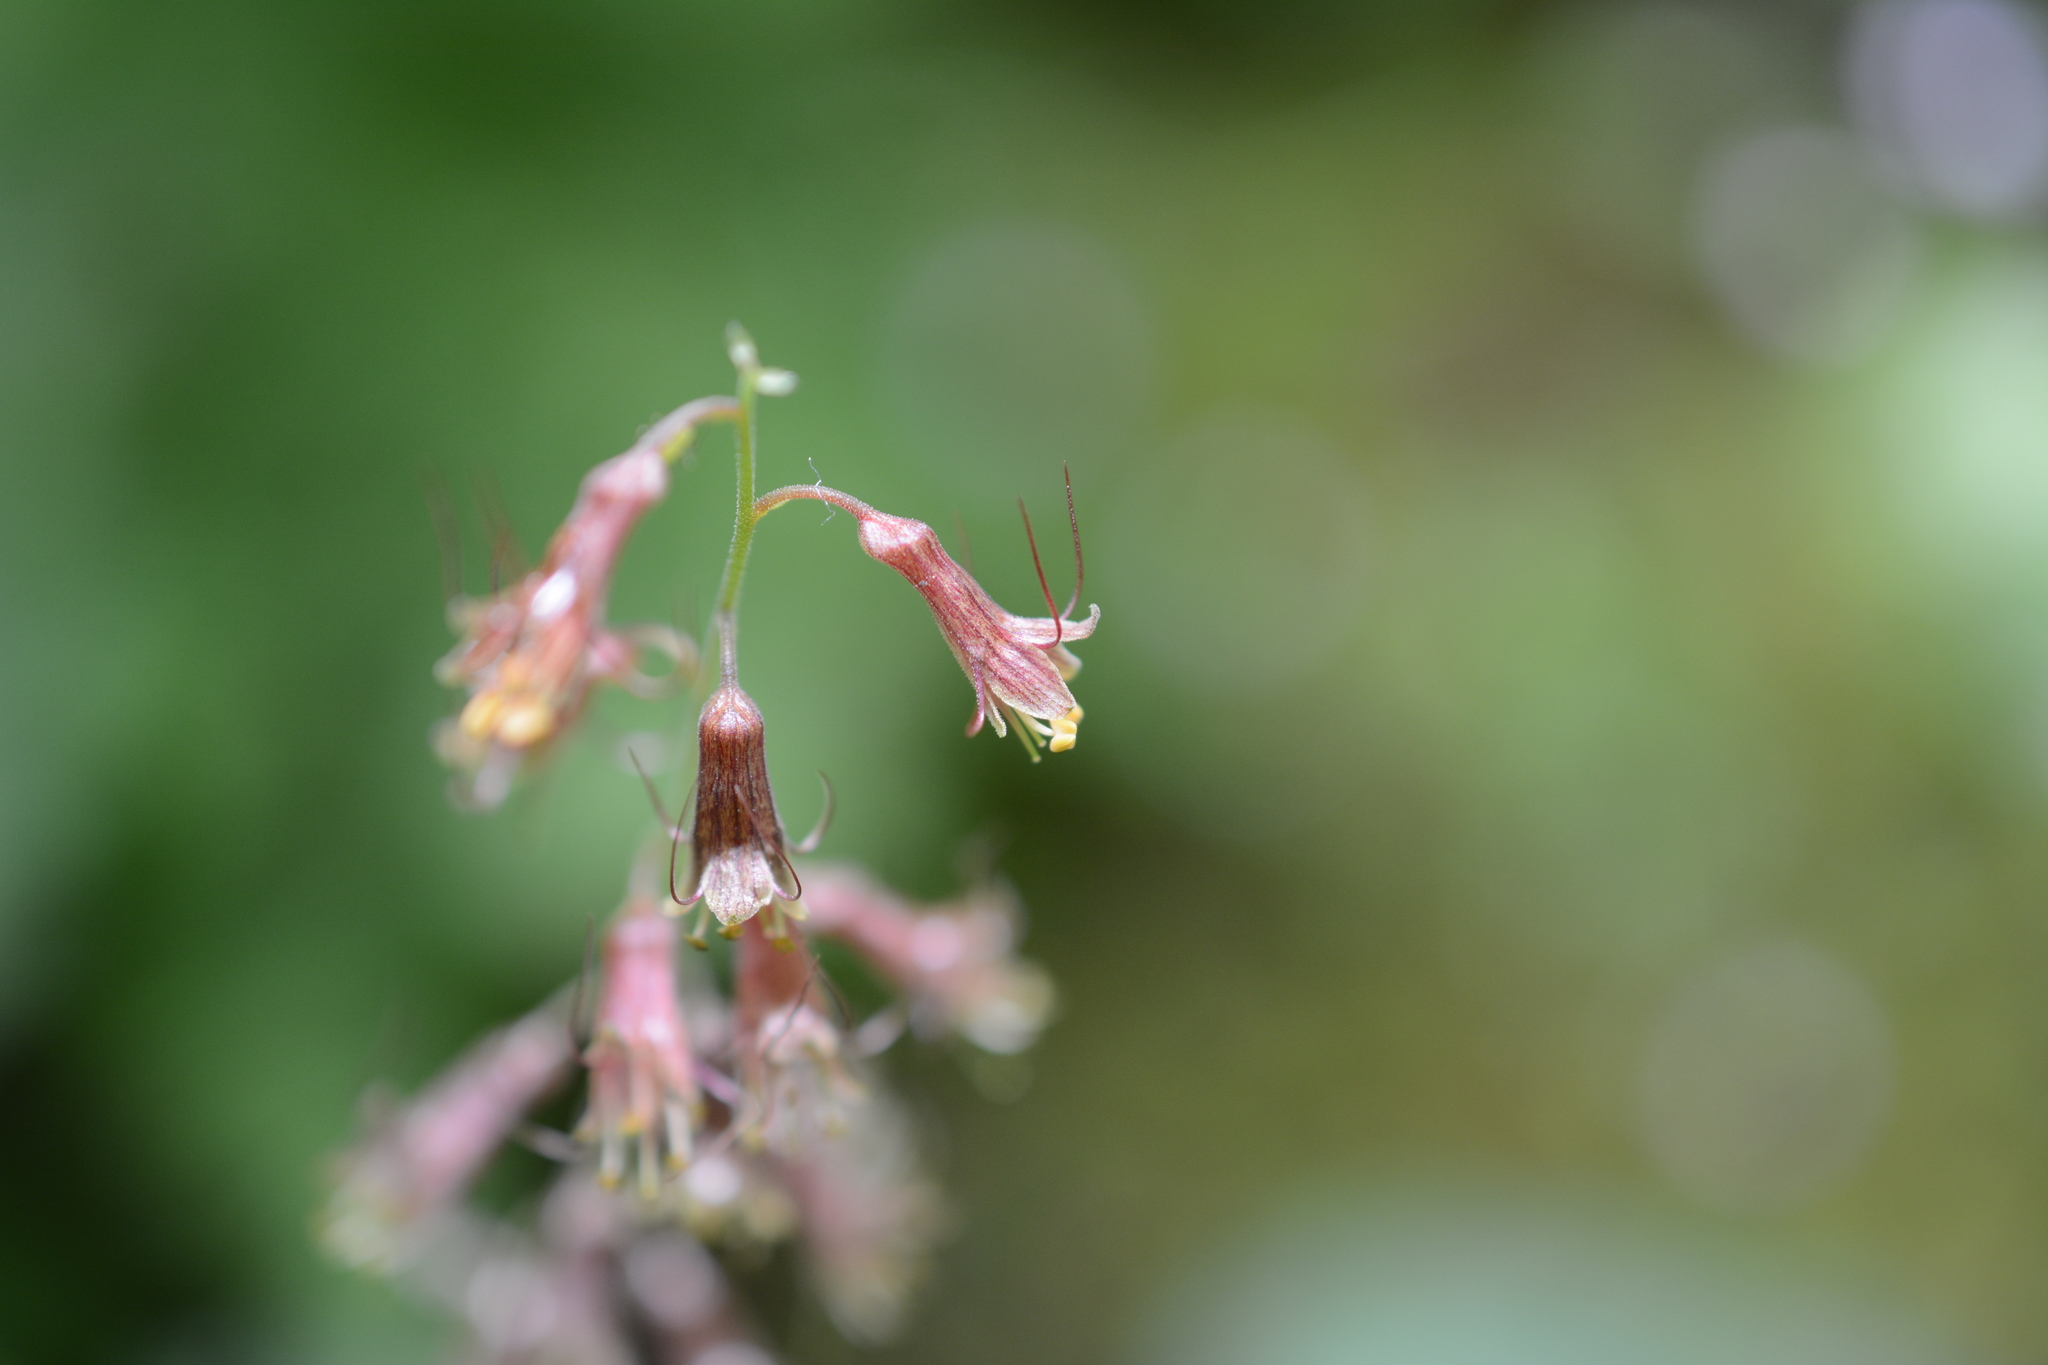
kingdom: Plantae
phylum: Tracheophyta
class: Magnoliopsida
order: Saxifragales
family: Saxifragaceae
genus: Tolmiea
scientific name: Tolmiea menziesii
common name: Pick-a-back-plant
